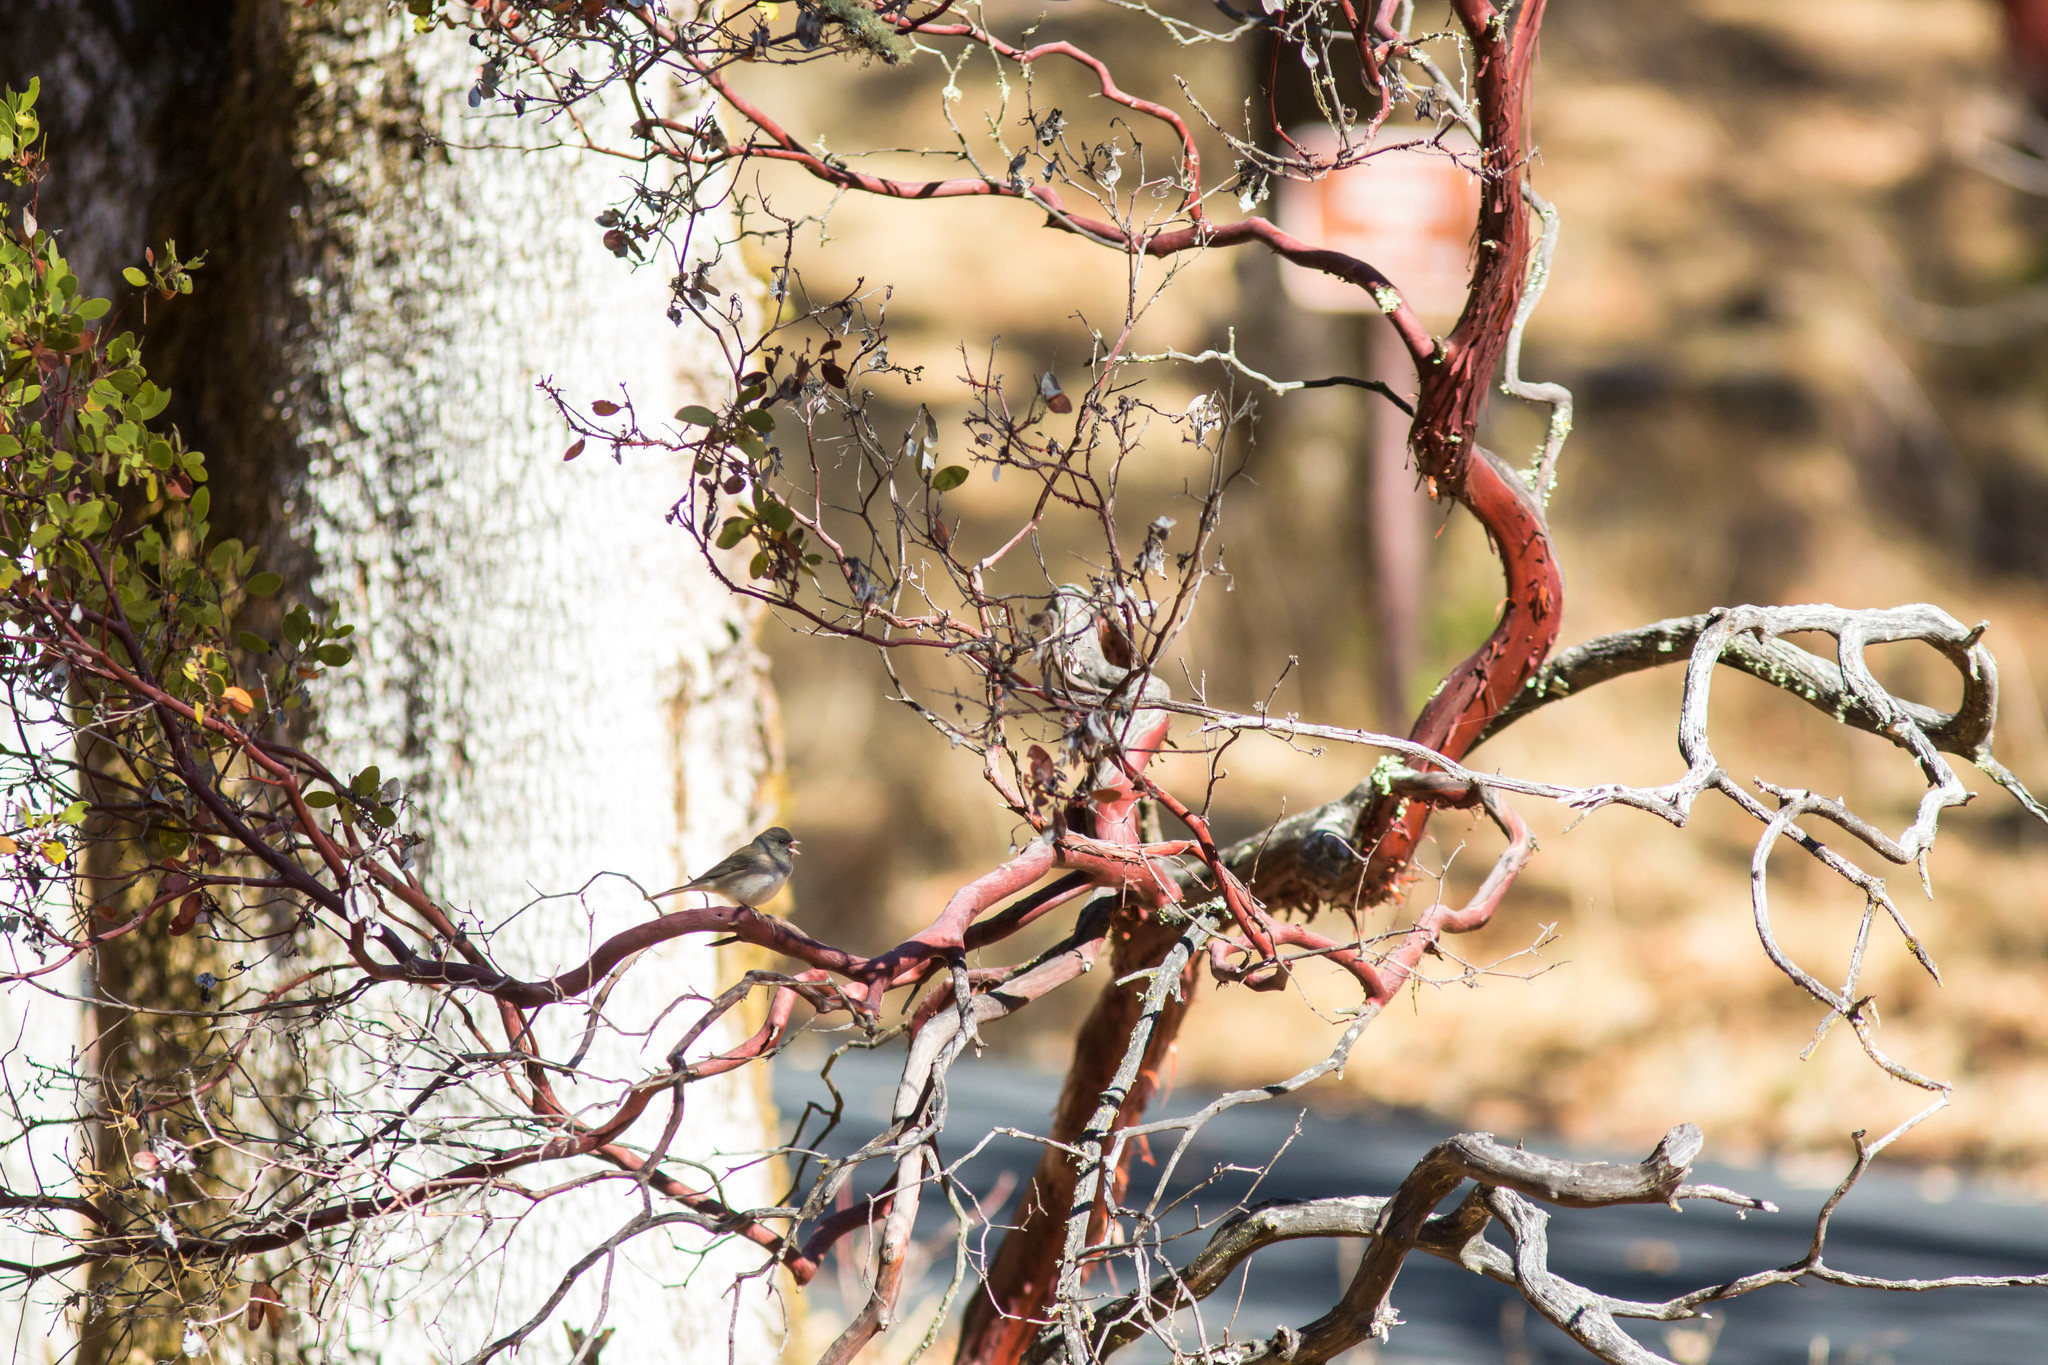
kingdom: Animalia
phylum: Chordata
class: Aves
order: Passeriformes
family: Passerellidae
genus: Junco
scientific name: Junco hyemalis
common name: Dark-eyed junco
